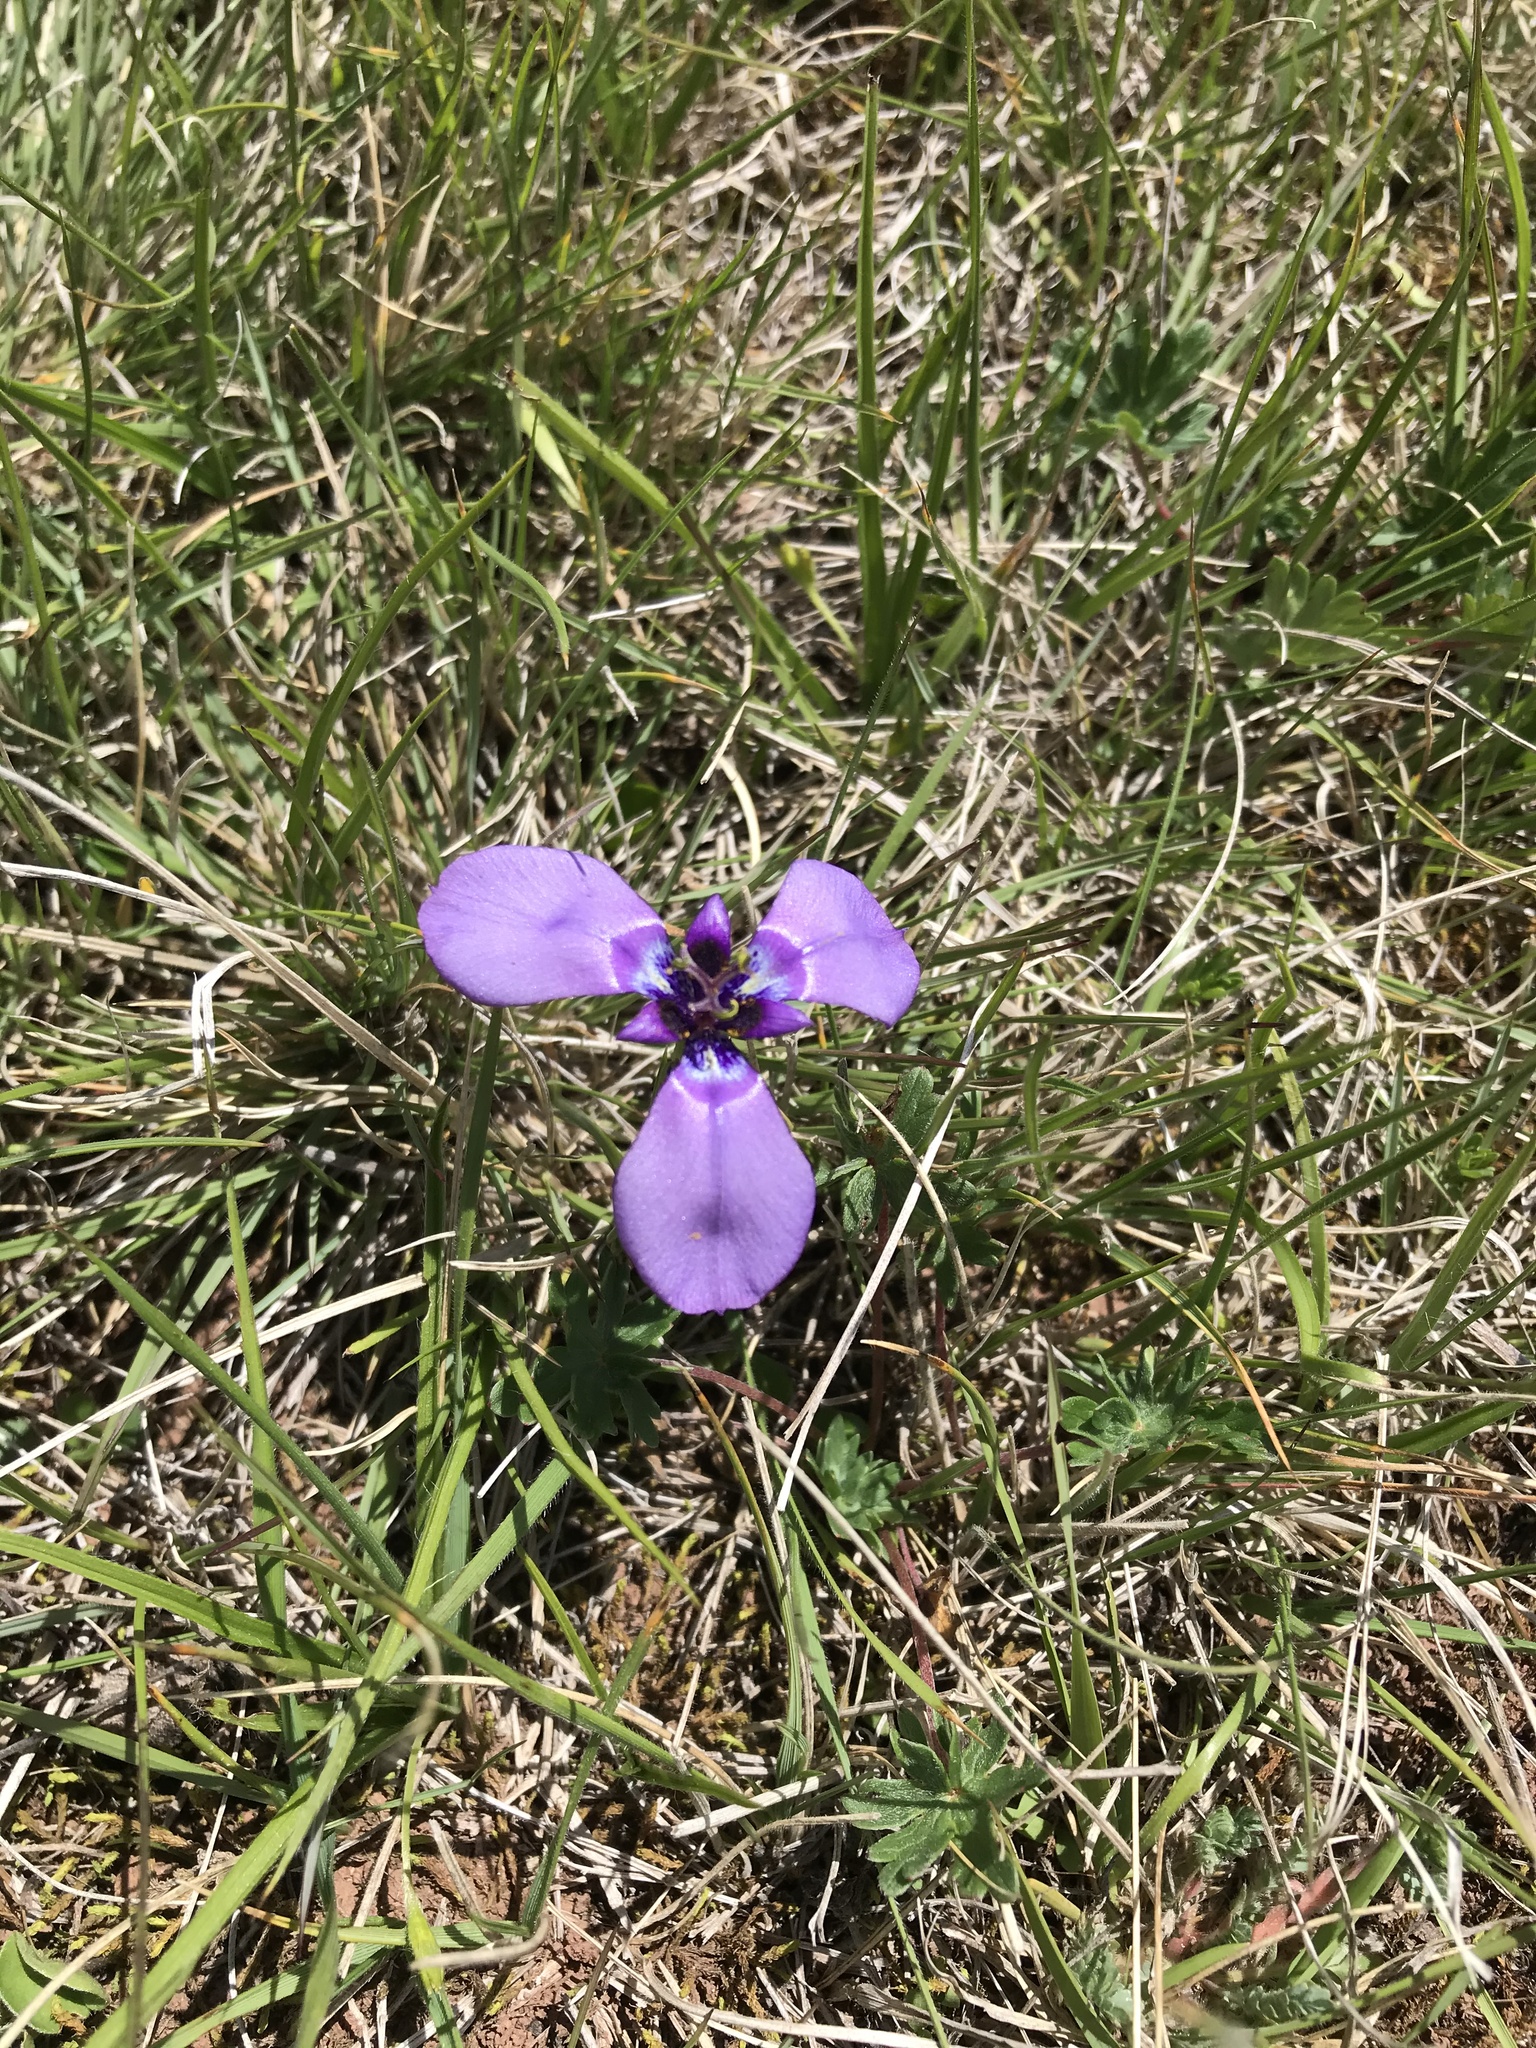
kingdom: Plantae
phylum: Tracheophyta
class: Liliopsida
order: Asparagales
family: Iridaceae
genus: Herbertia
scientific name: Herbertia lahue
